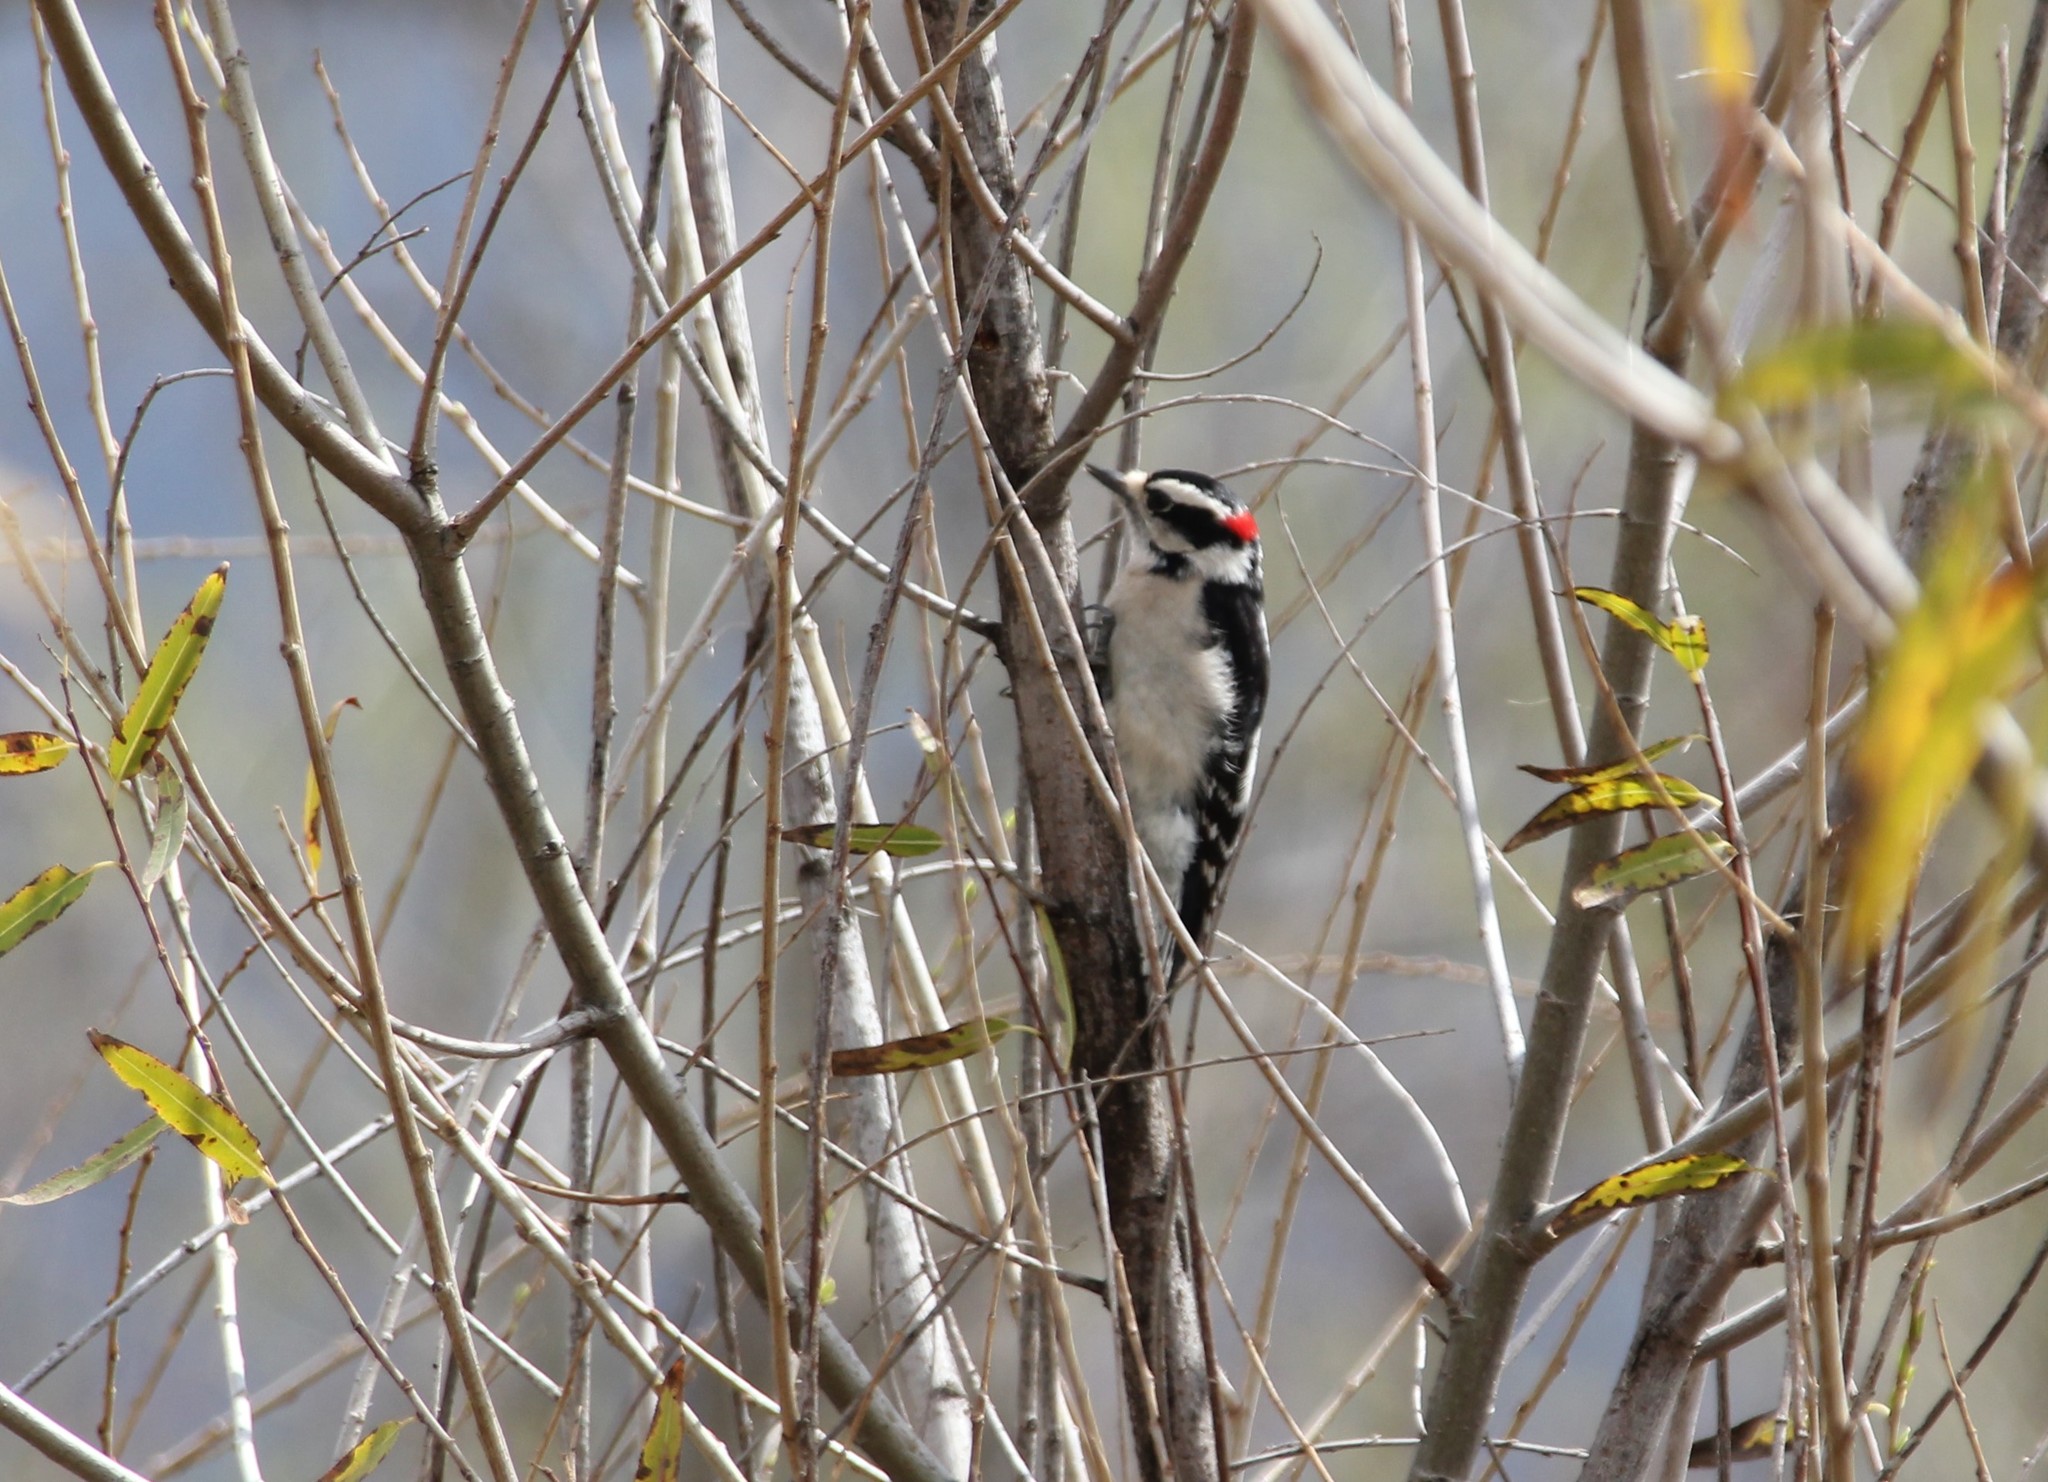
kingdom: Animalia
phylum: Chordata
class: Aves
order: Piciformes
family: Picidae
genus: Dryobates
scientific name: Dryobates pubescens
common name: Downy woodpecker
